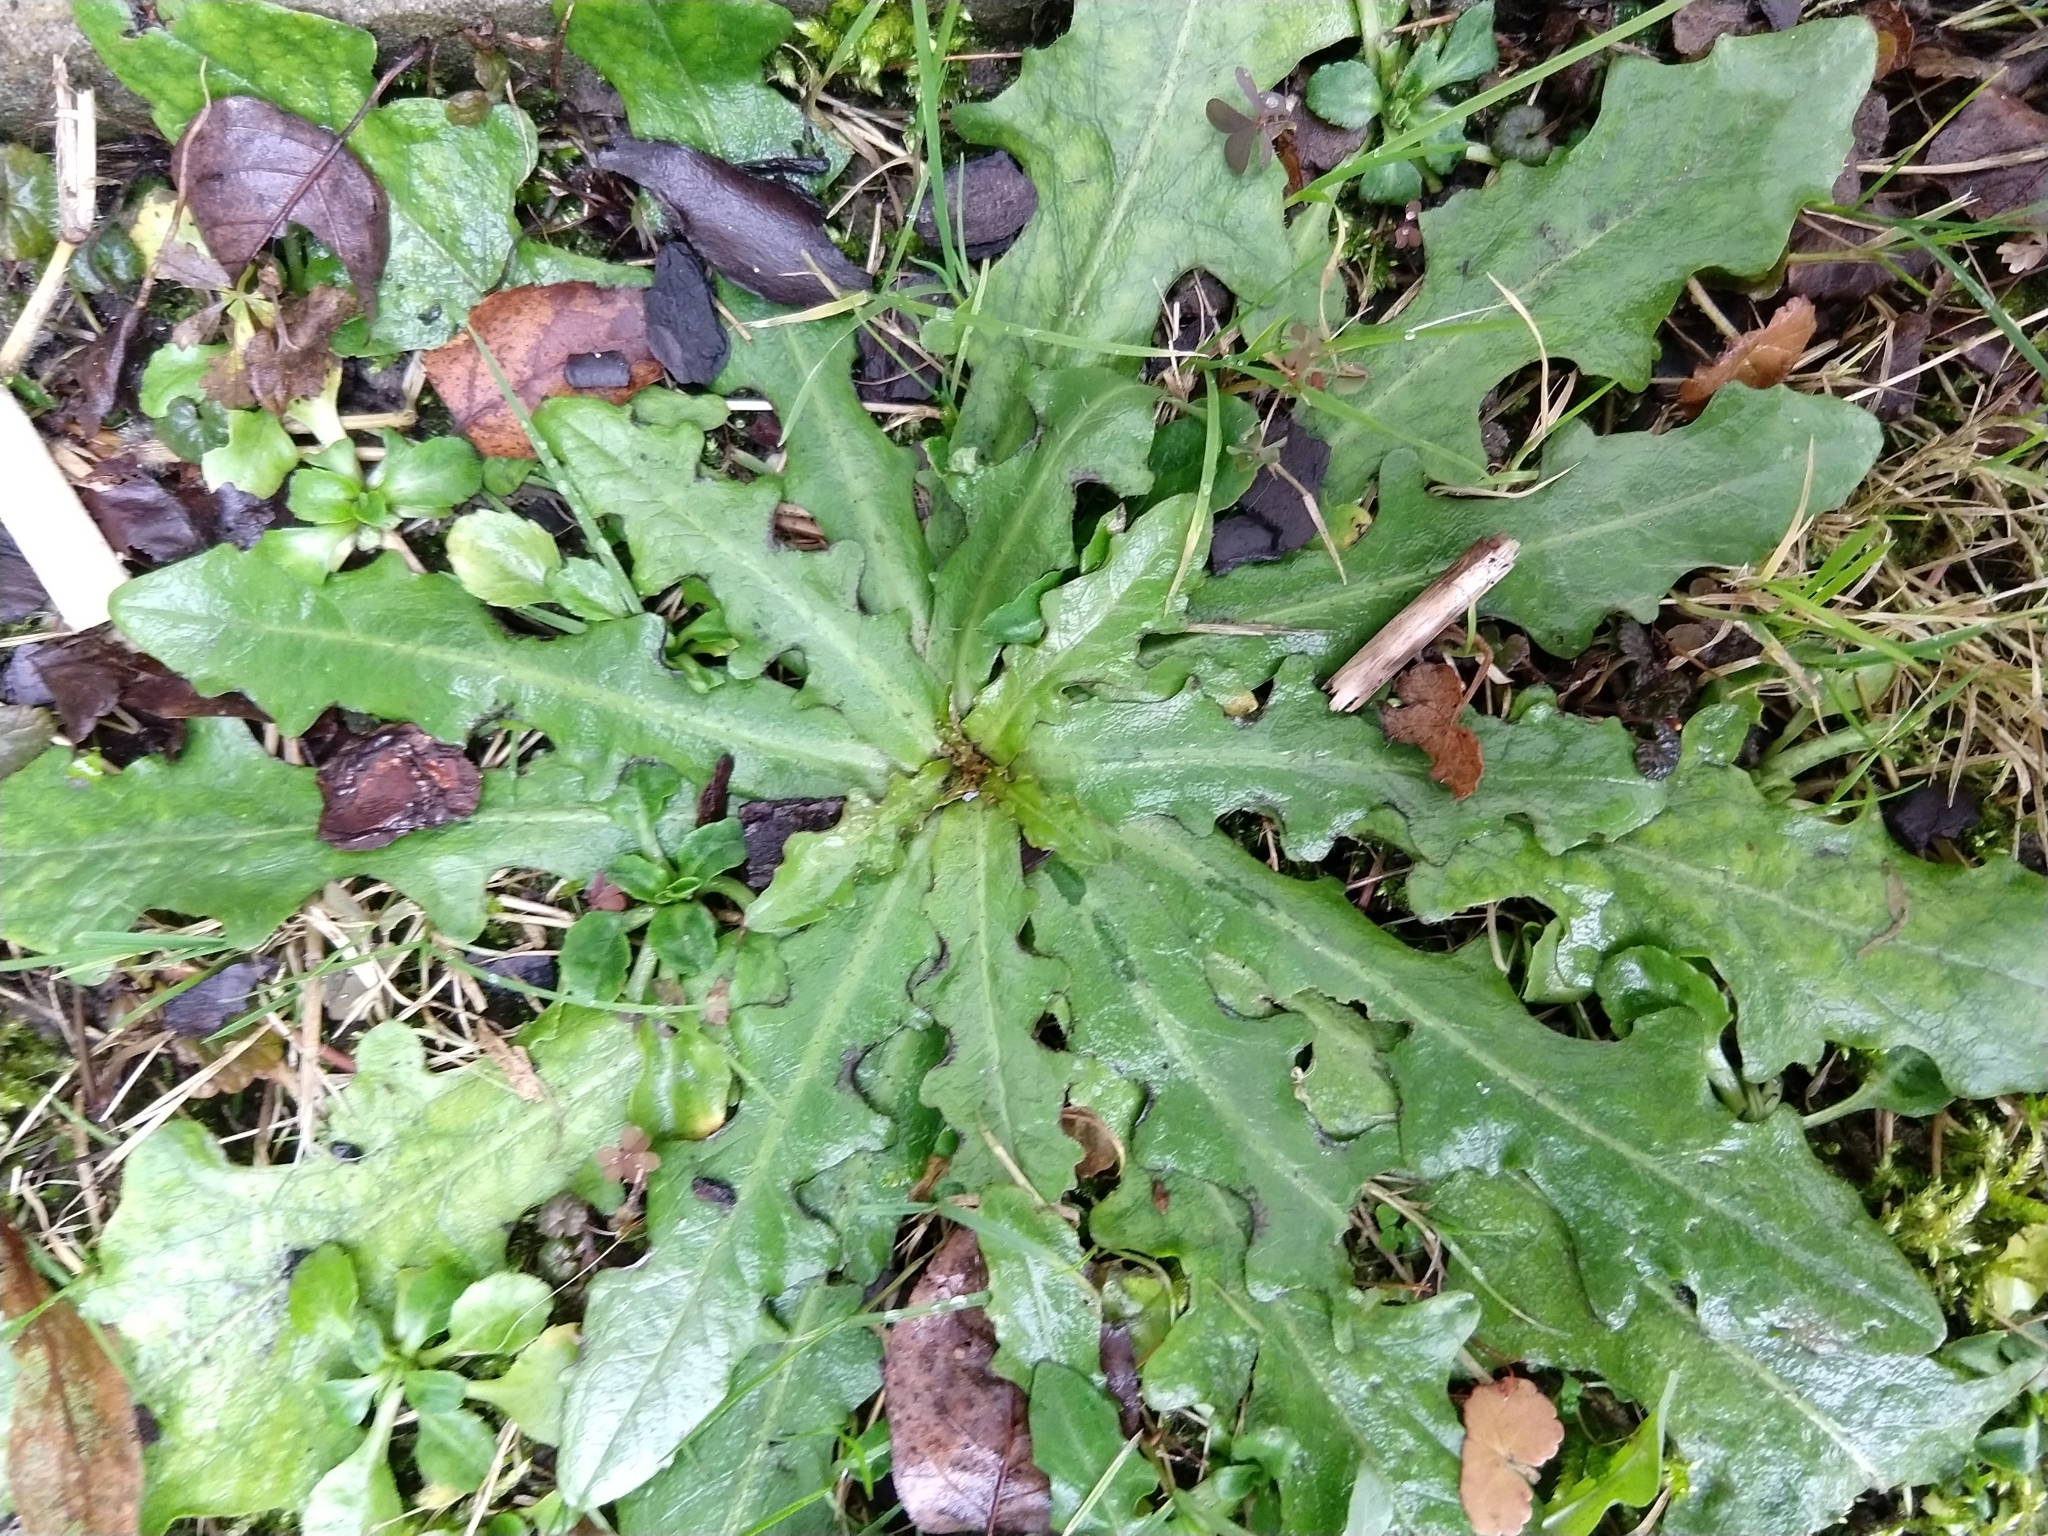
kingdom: Plantae
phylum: Tracheophyta
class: Magnoliopsida
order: Asterales
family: Asteraceae
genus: Hypochaeris
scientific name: Hypochaeris radicata
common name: Flatweed
